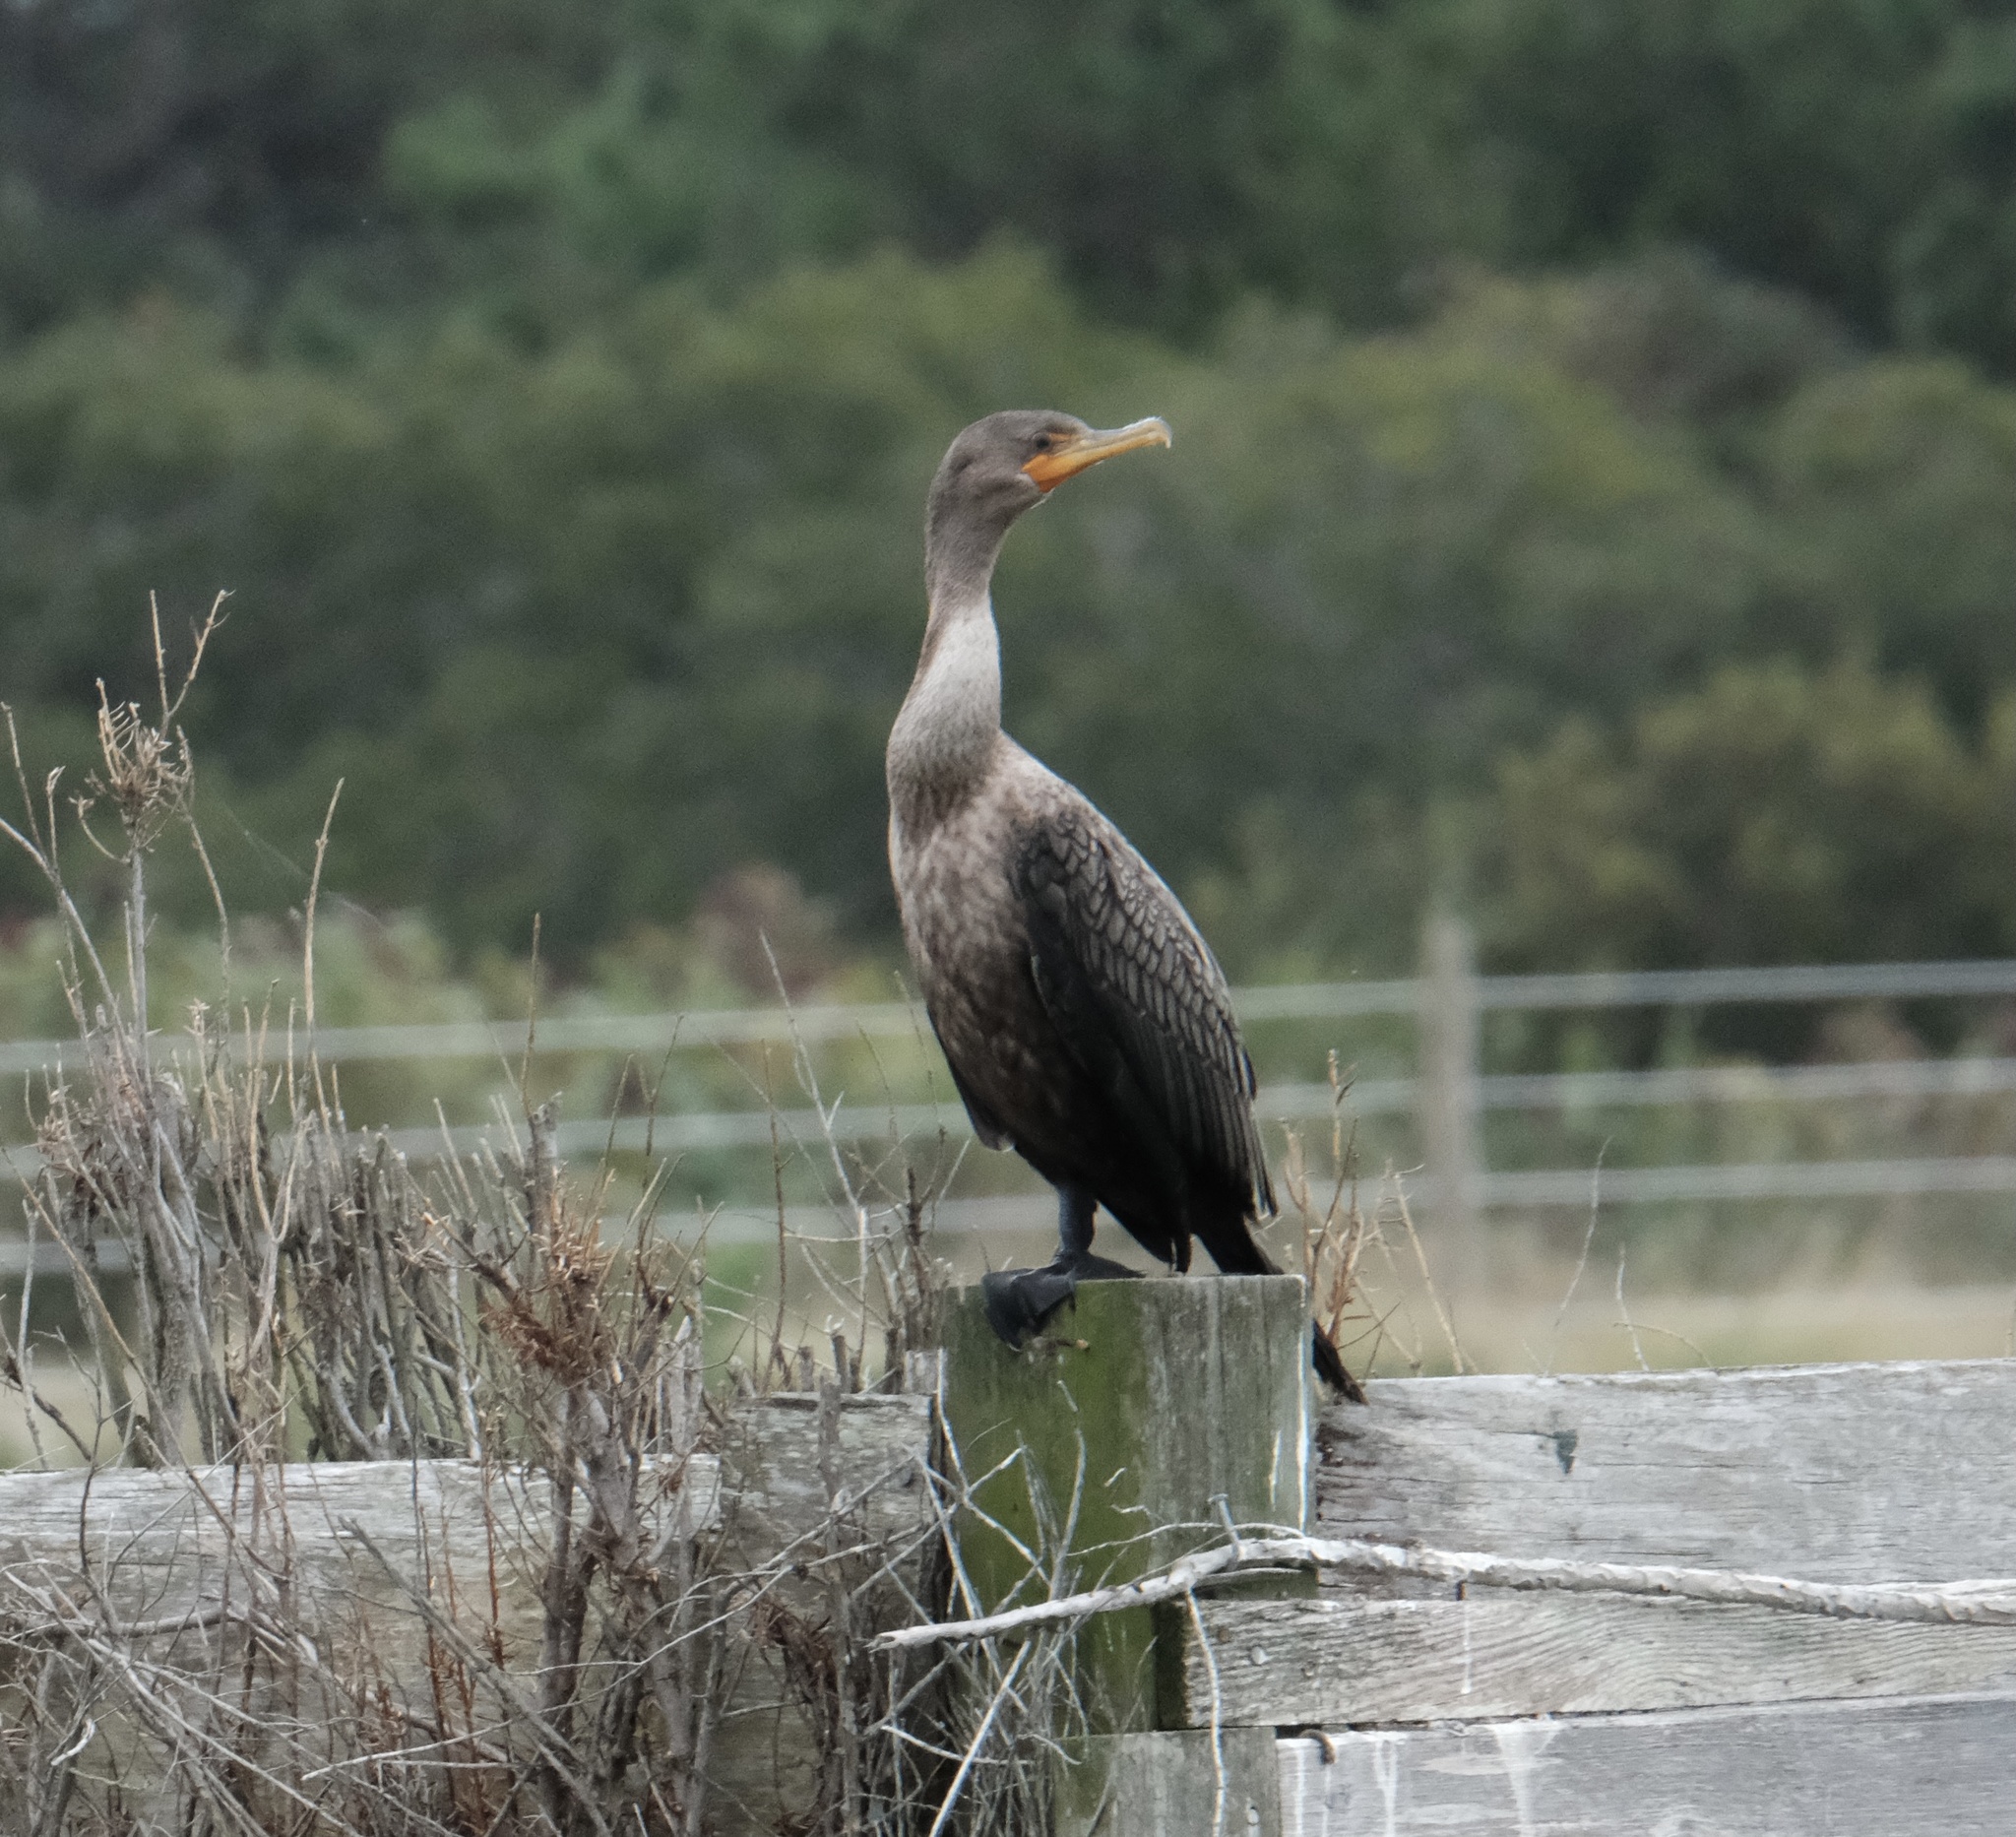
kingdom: Animalia
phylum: Chordata
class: Aves
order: Suliformes
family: Phalacrocoracidae
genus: Phalacrocorax
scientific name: Phalacrocorax auritus
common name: Double-crested cormorant
